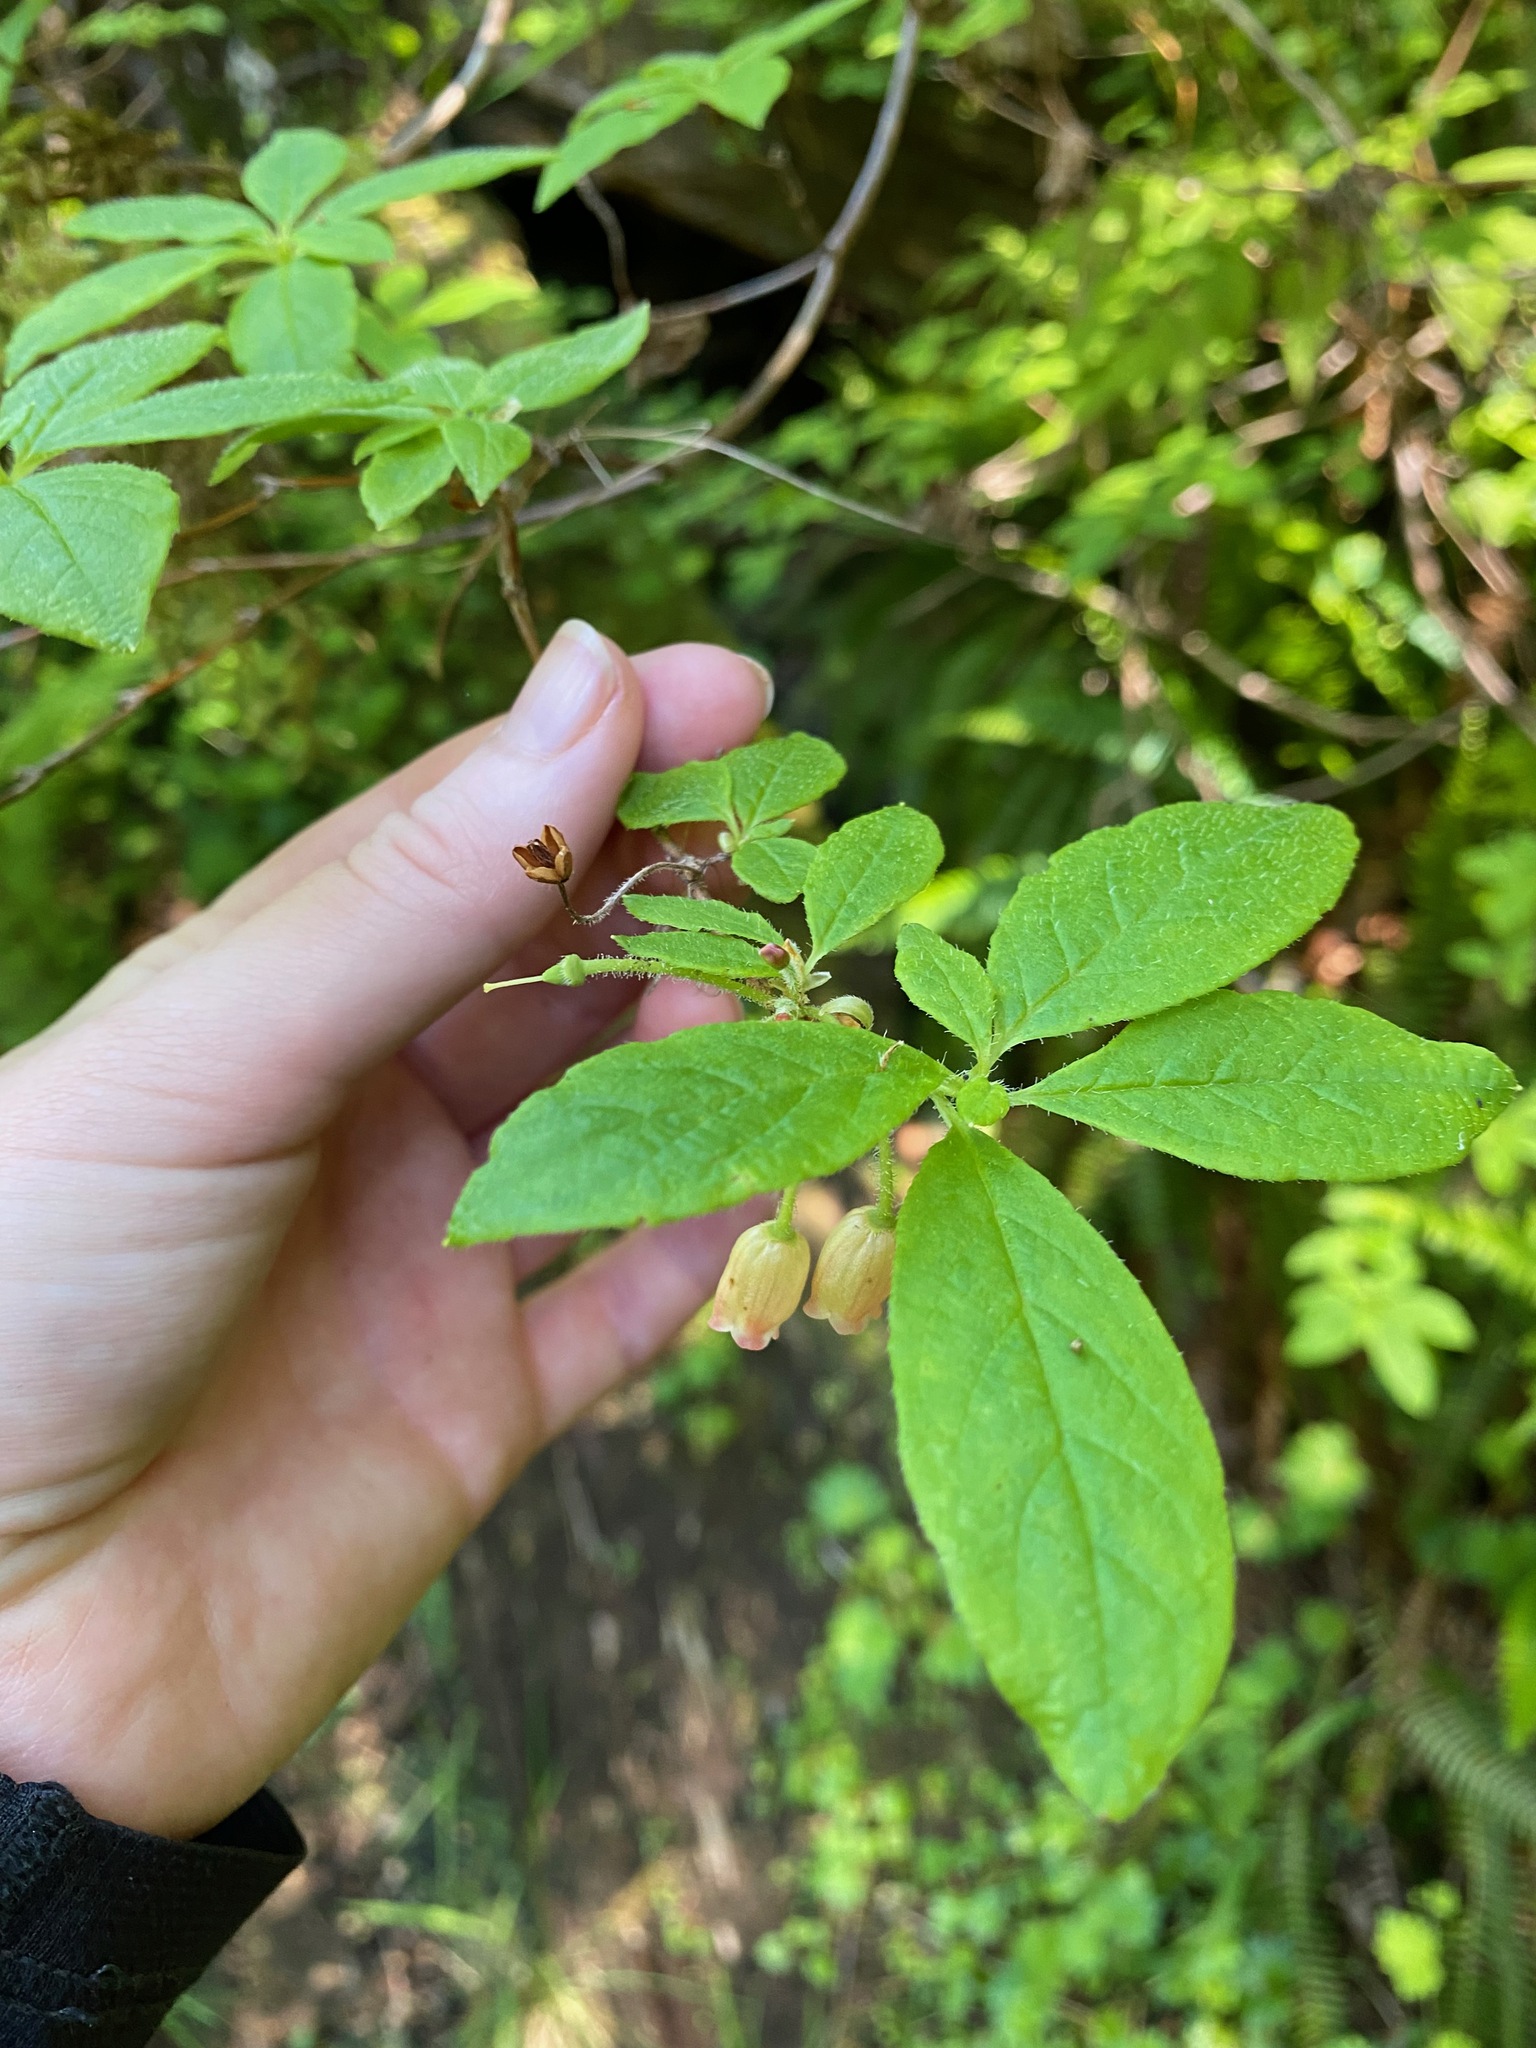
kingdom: Plantae
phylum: Tracheophyta
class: Magnoliopsida
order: Ericales
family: Ericaceae
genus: Rhododendron
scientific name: Rhododendron menziesii
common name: Pacific menziesia
